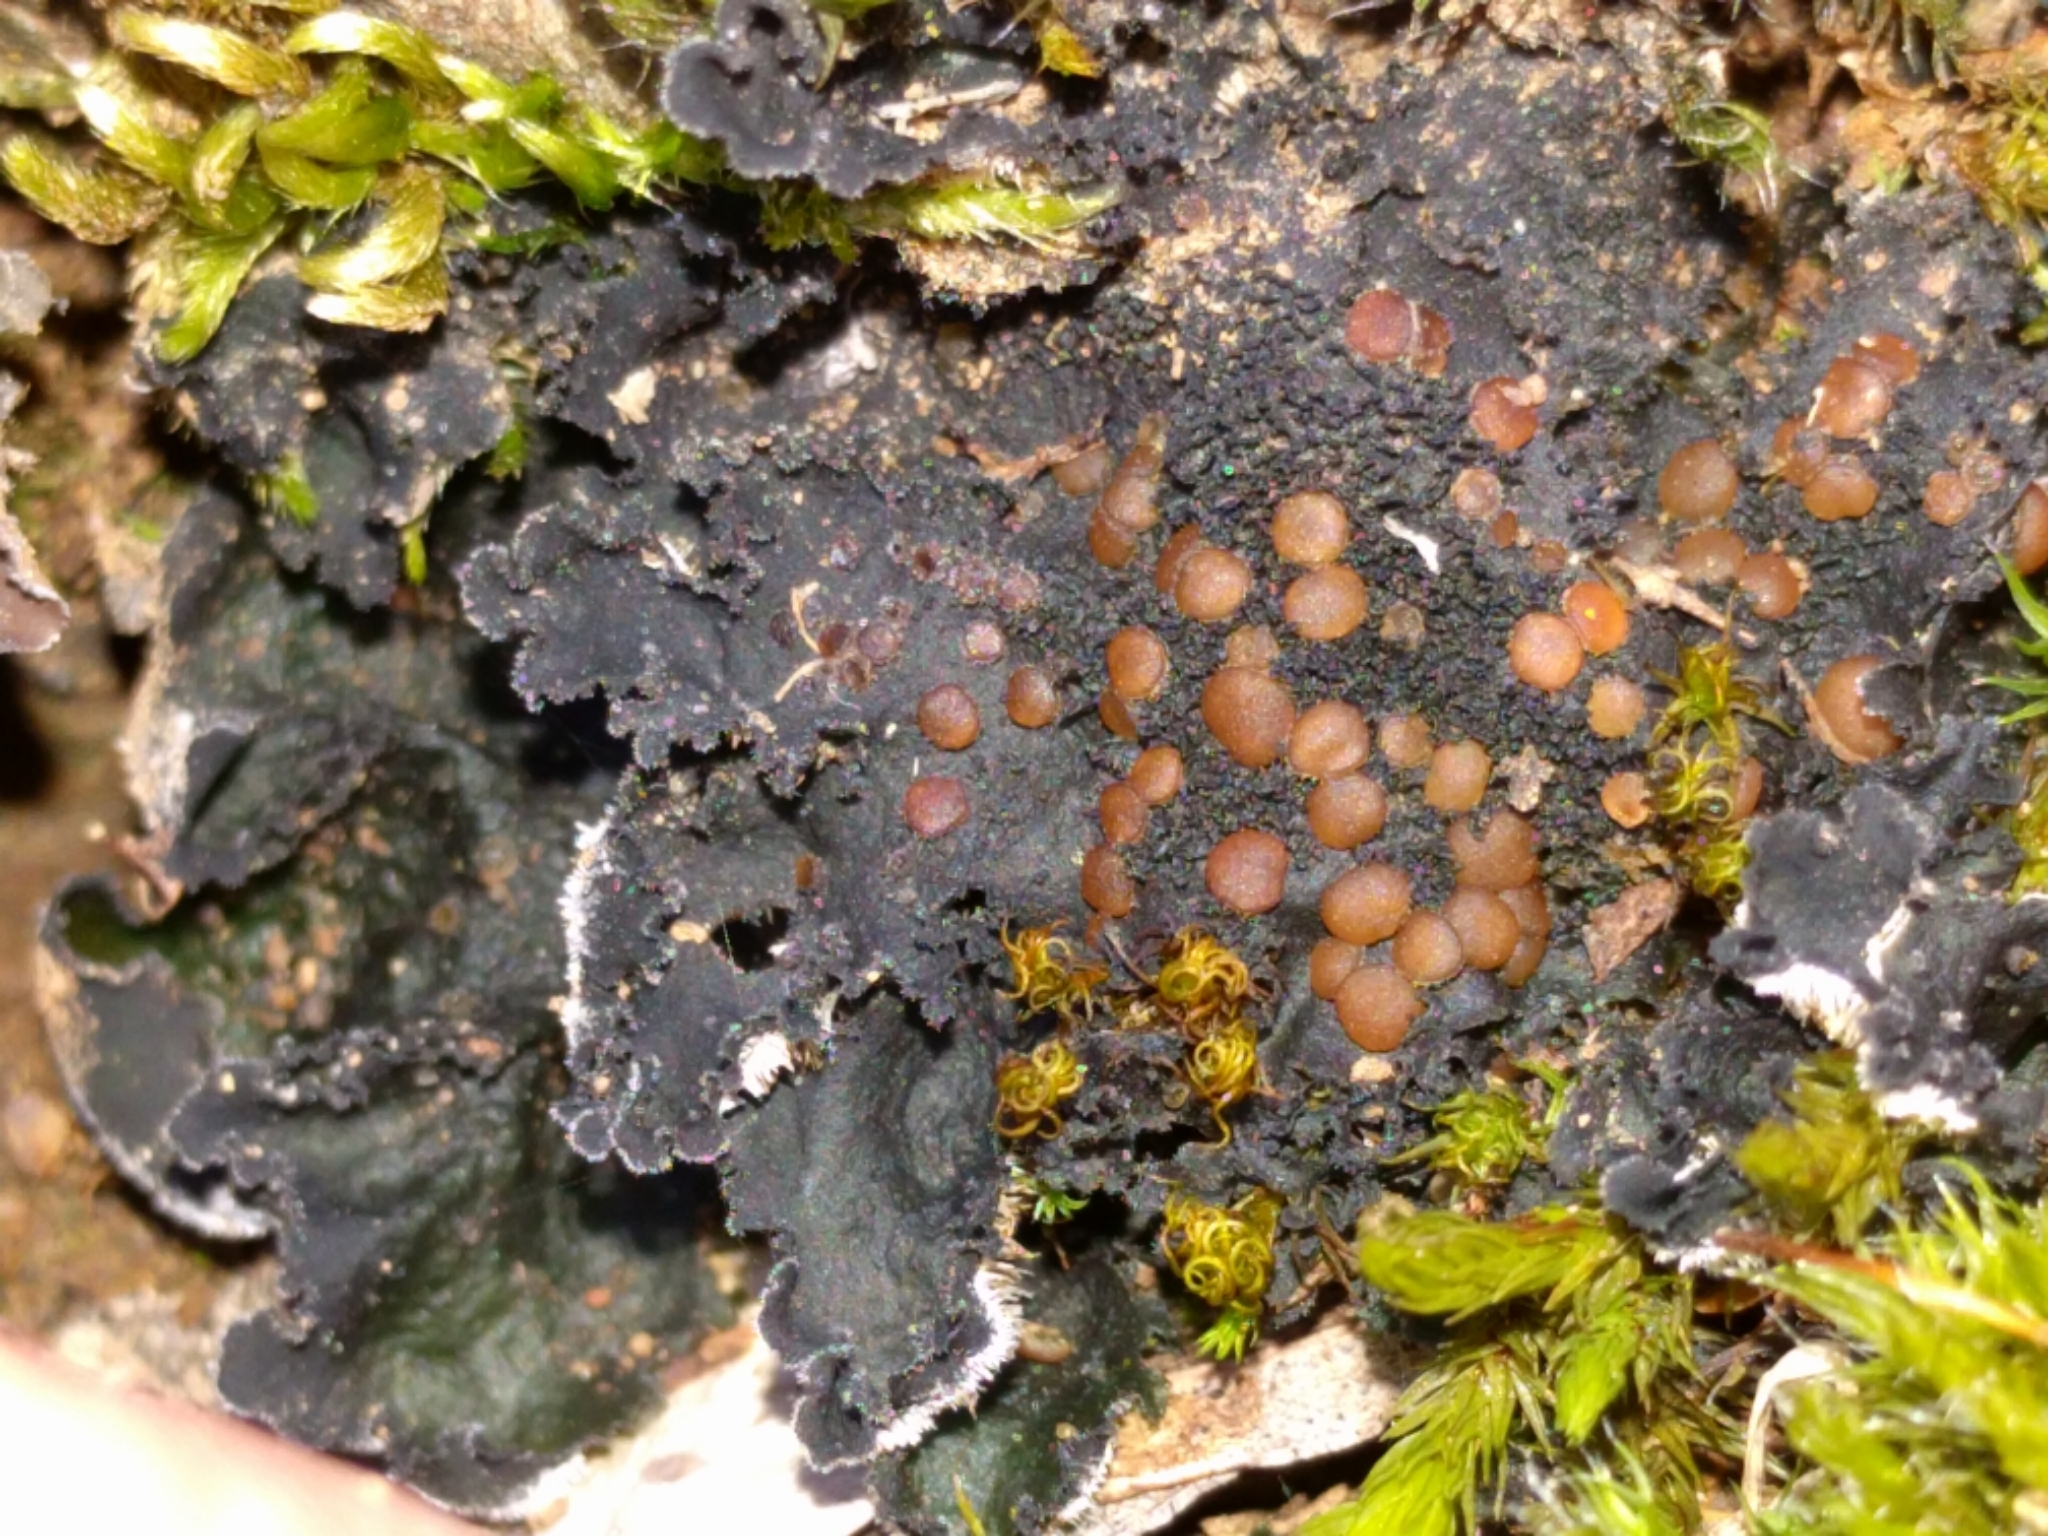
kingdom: Fungi
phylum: Ascomycota
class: Lecanoromycetes
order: Peltigerales
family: Massalongiaceae
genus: Leptochidium
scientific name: Leptochidium albociliatum
